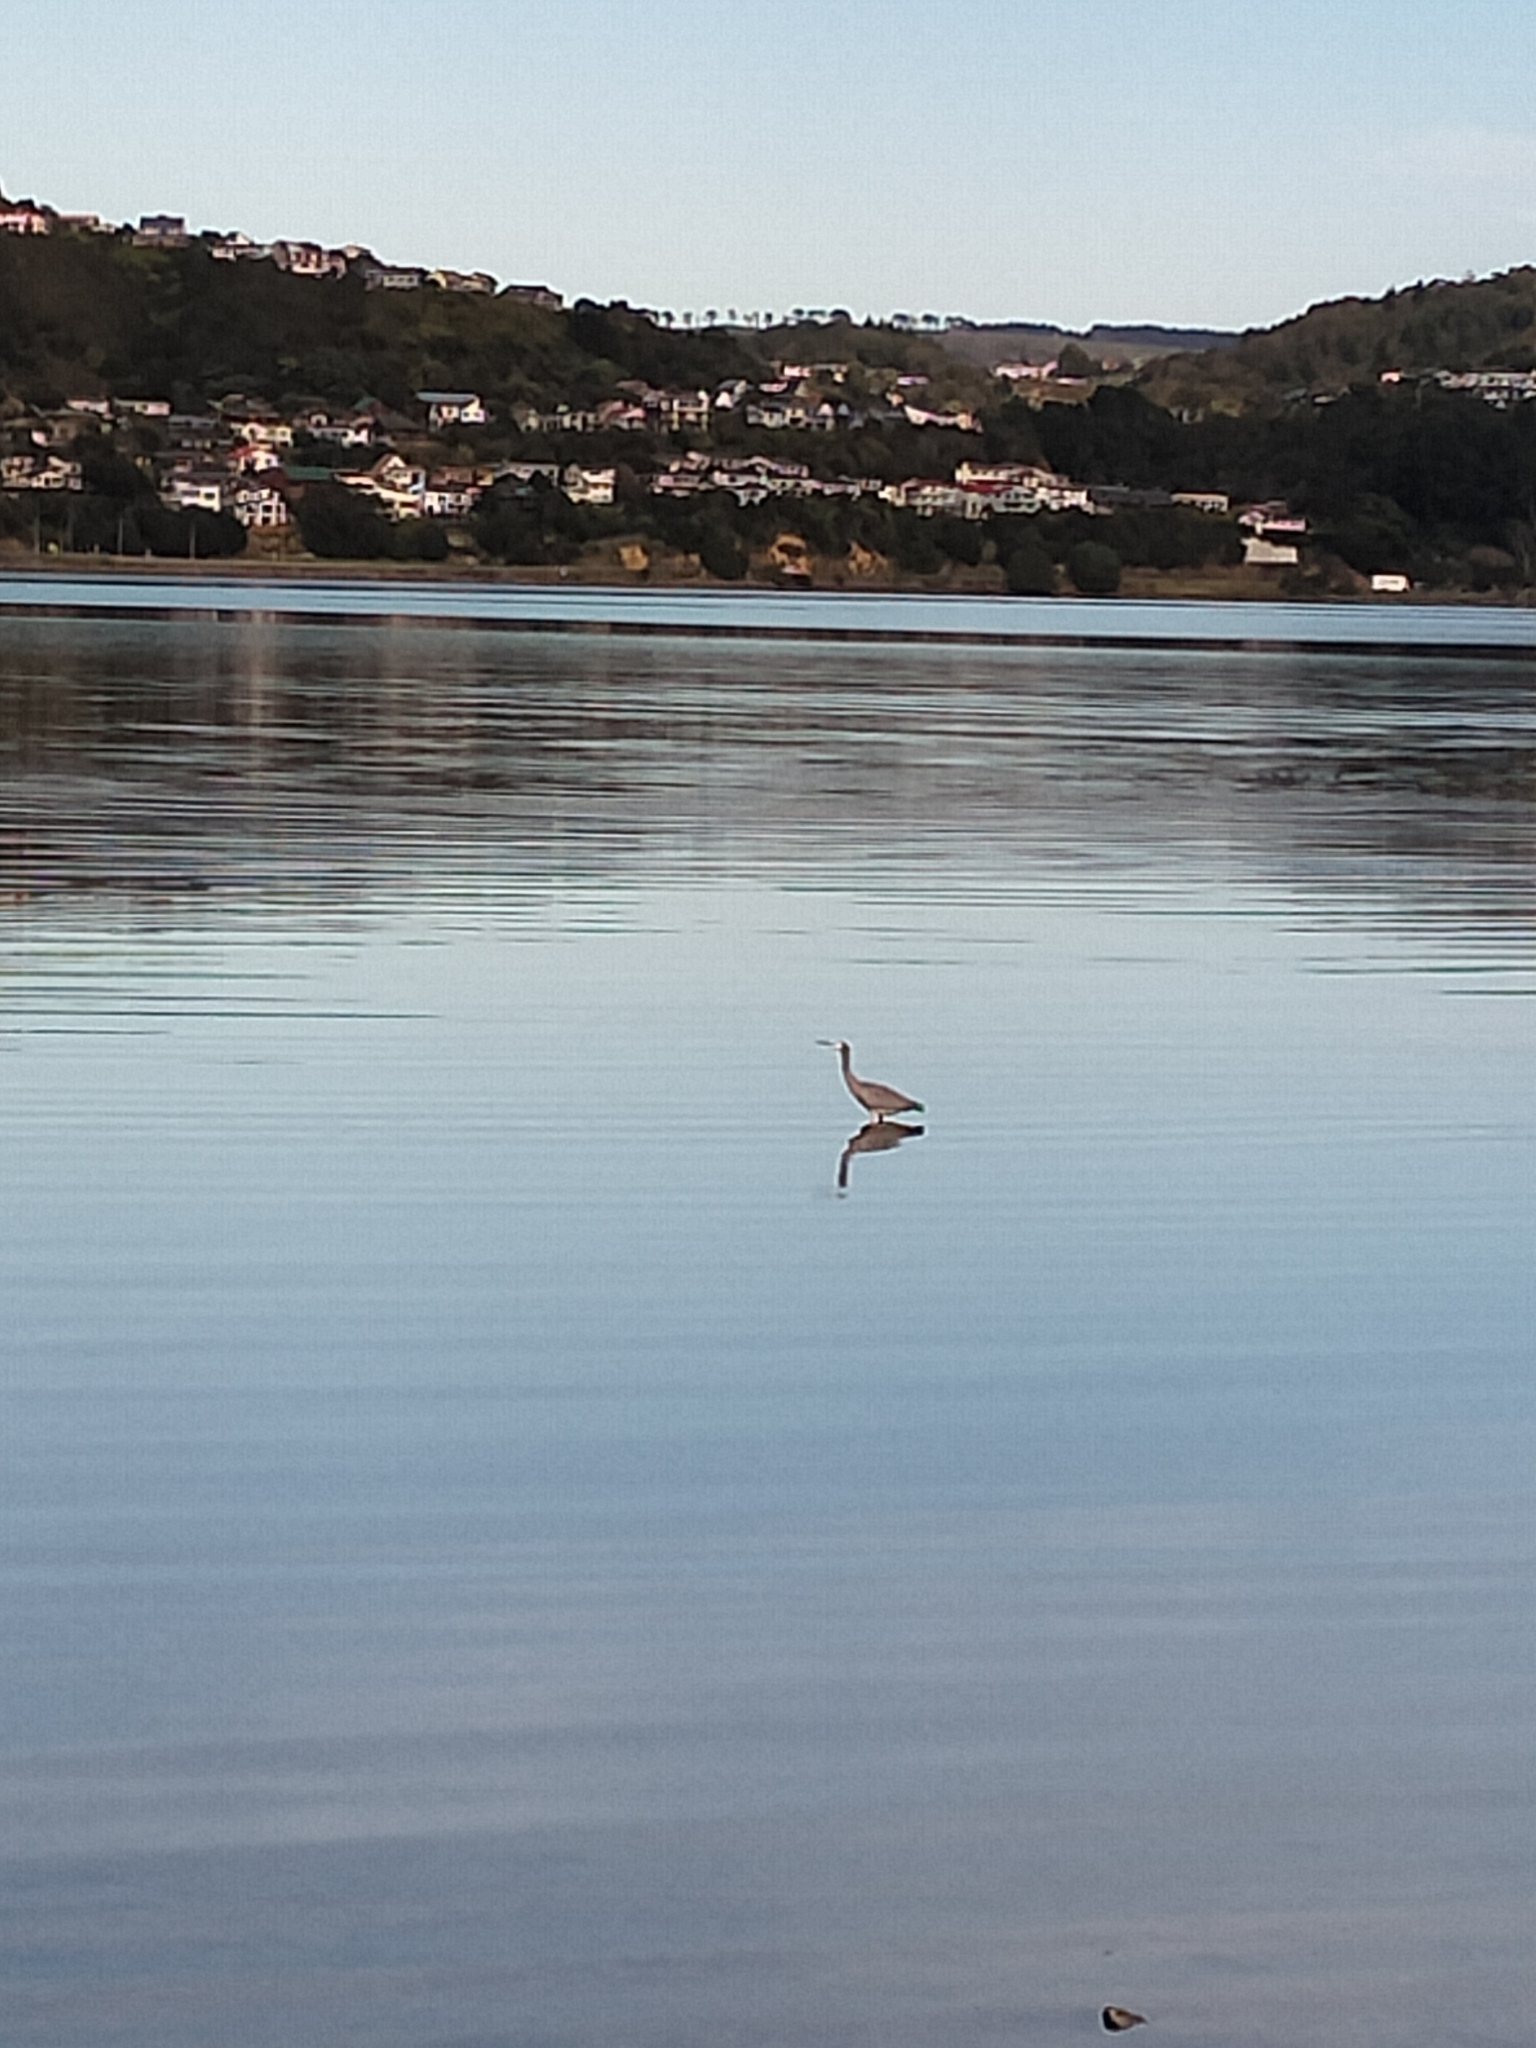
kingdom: Animalia
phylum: Chordata
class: Aves
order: Pelecaniformes
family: Ardeidae
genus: Egretta
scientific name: Egretta novaehollandiae
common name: White-faced heron
